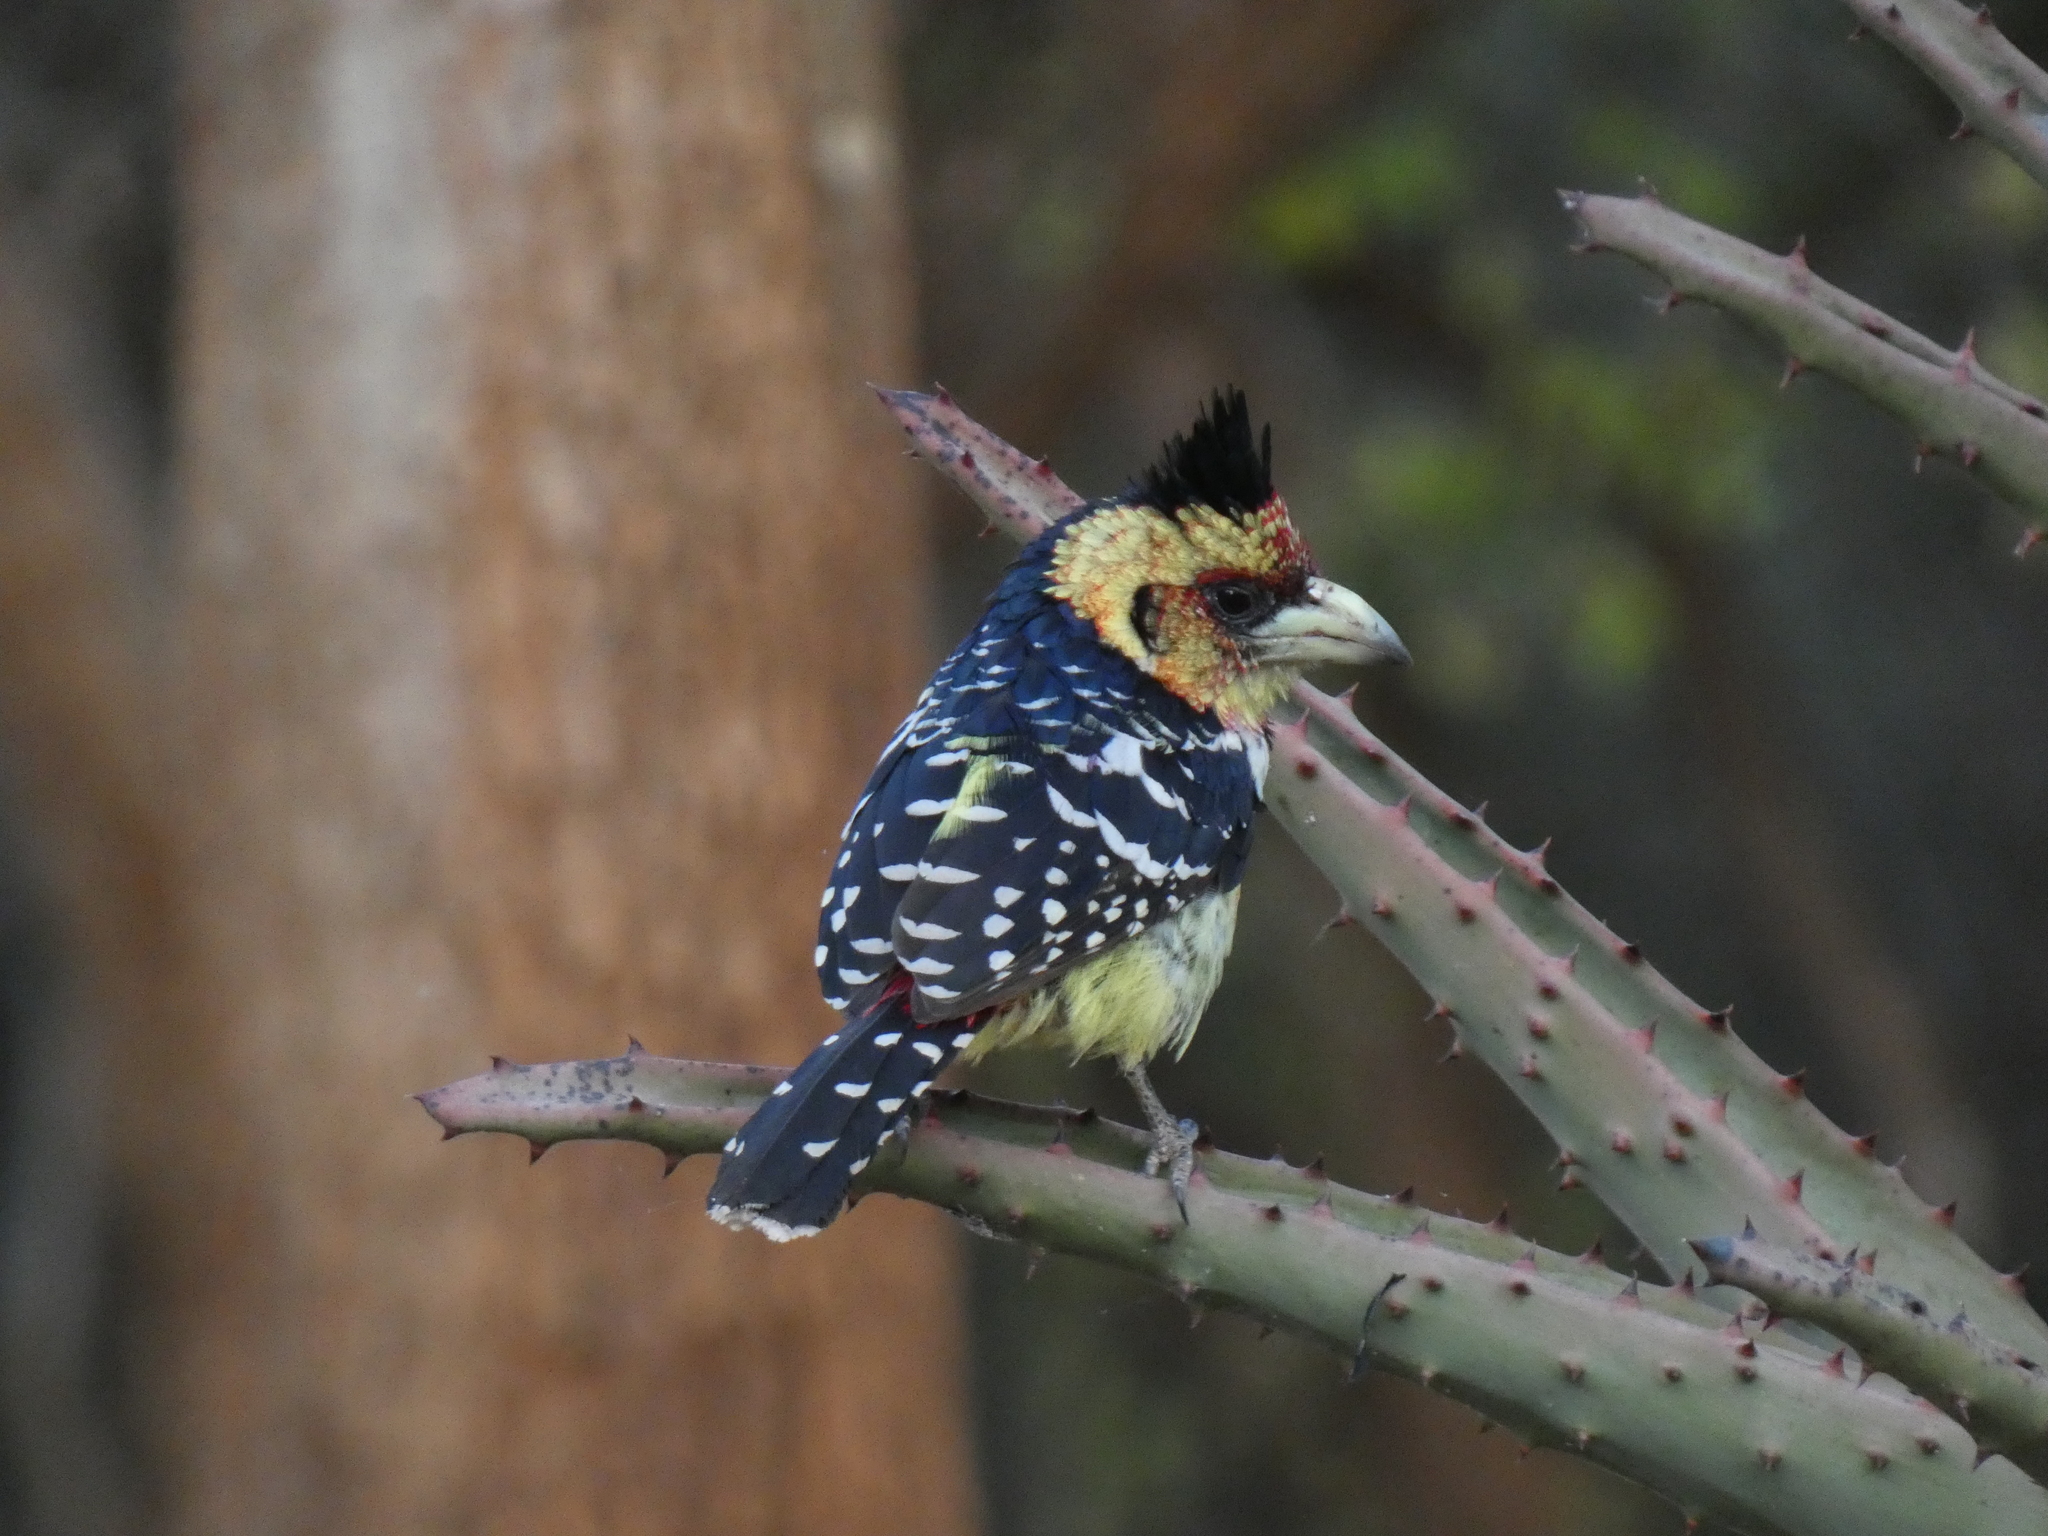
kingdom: Animalia
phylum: Chordata
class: Aves
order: Piciformes
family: Lybiidae
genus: Trachyphonus
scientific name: Trachyphonus vaillantii
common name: Crested barbet
